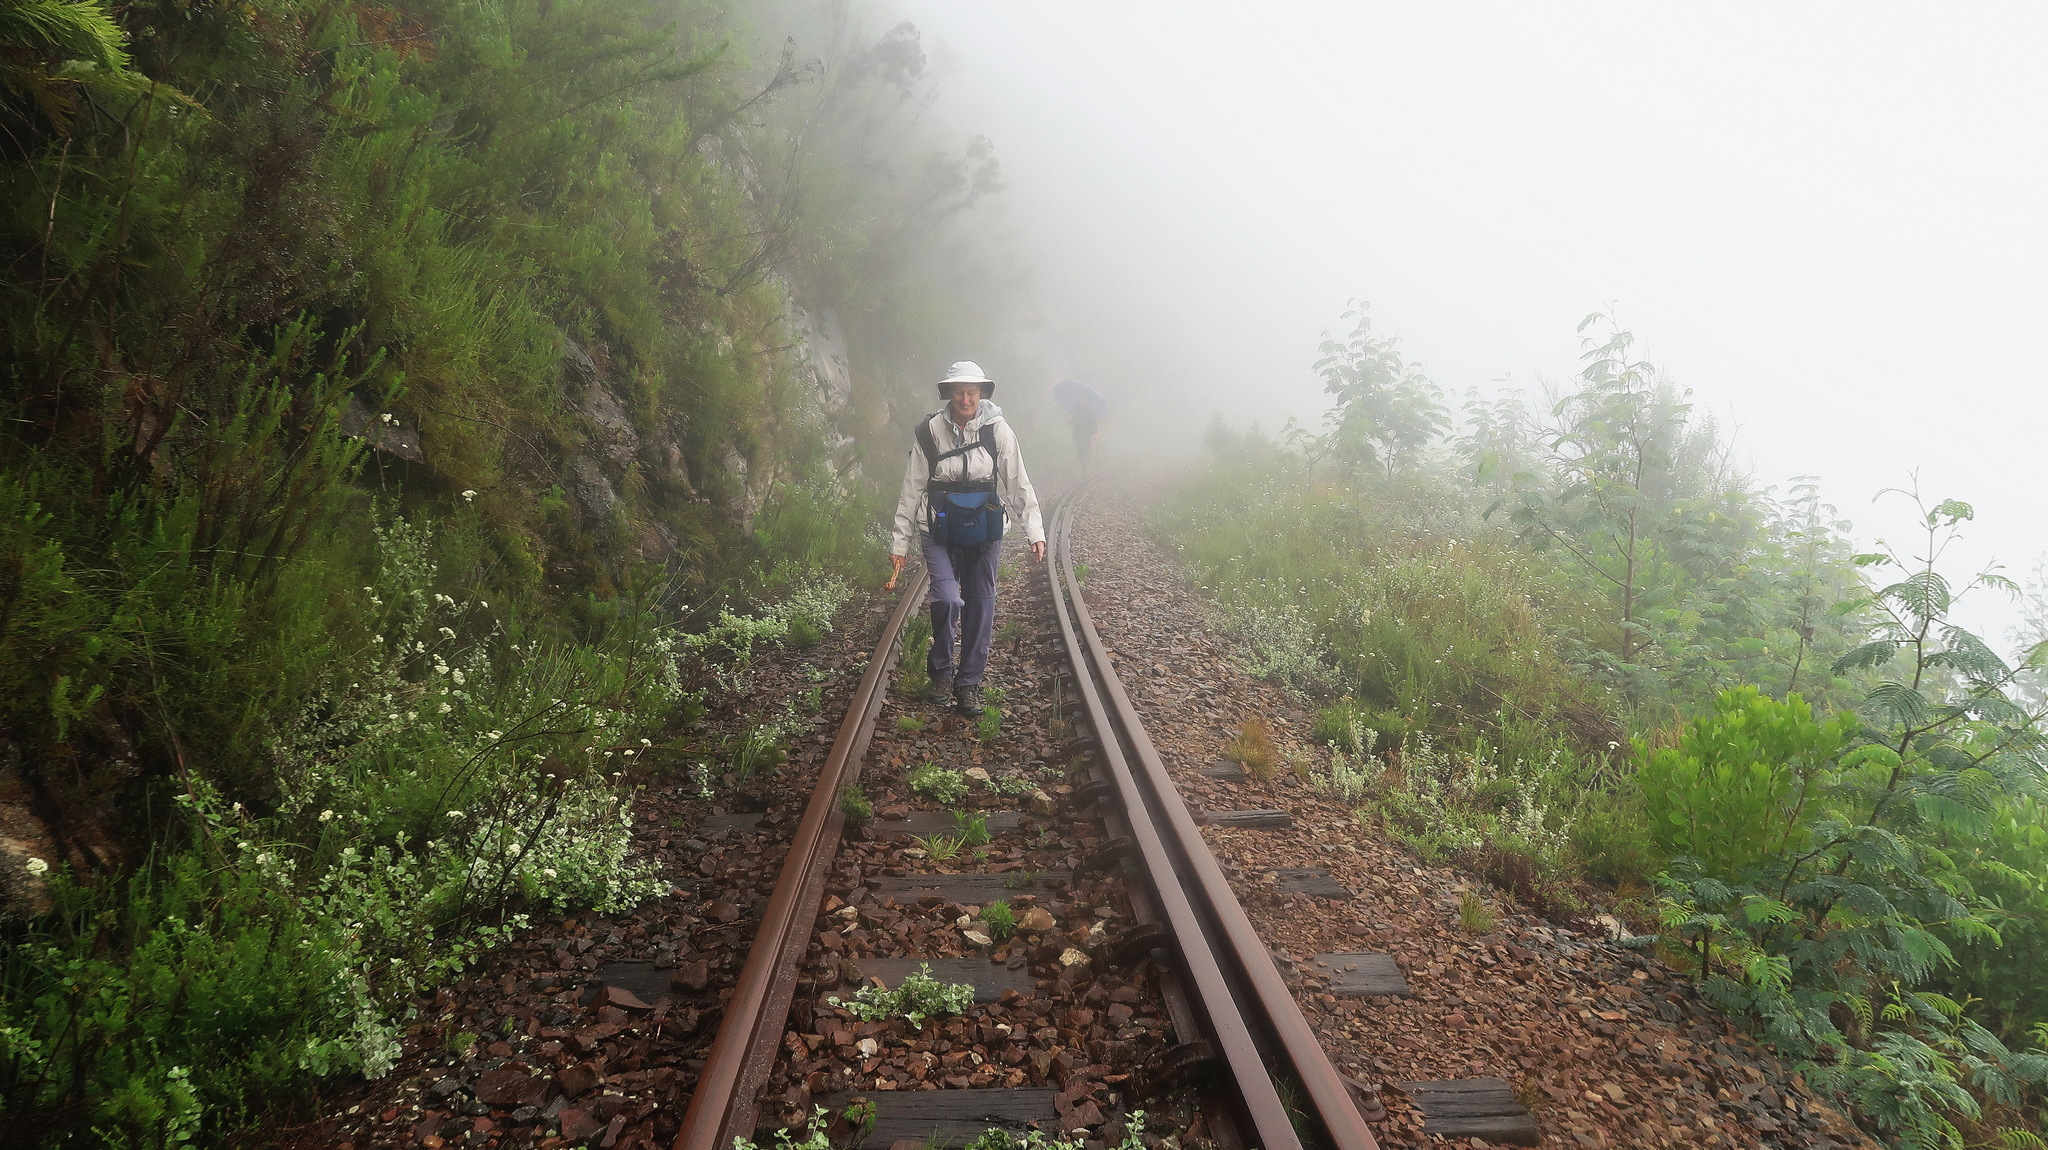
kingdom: Plantae
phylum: Tracheophyta
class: Magnoliopsida
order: Fabales
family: Fabaceae
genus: Paraserianthes
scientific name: Paraserianthes lophantha
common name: Plume albizia
